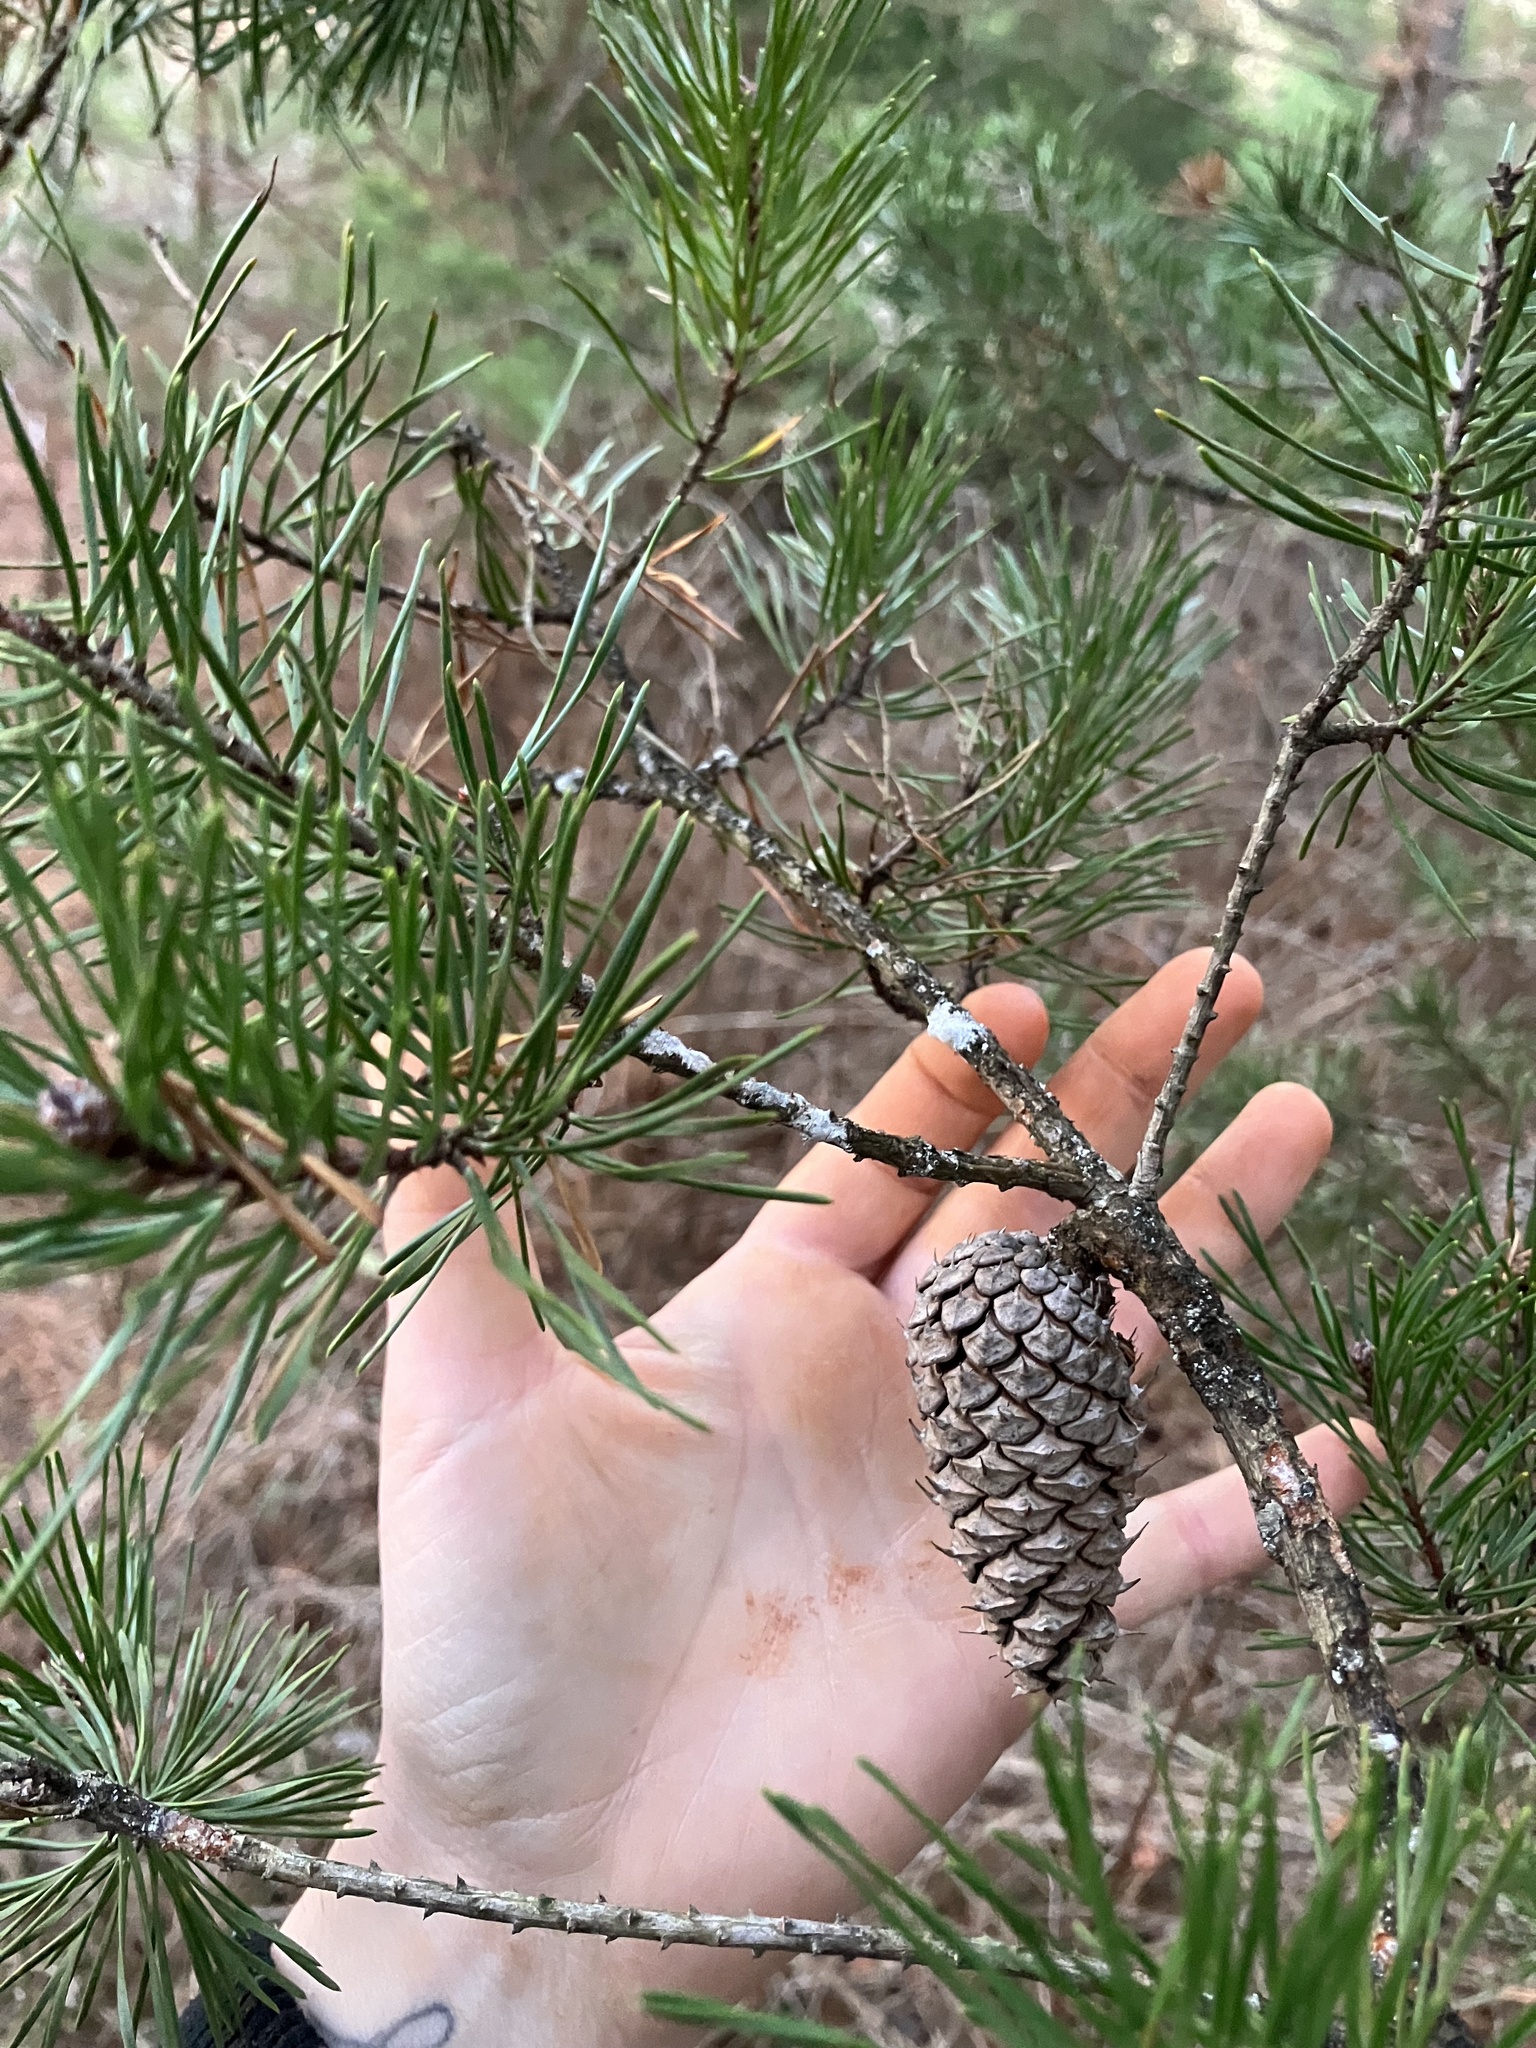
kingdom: Plantae
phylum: Tracheophyta
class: Pinopsida
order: Pinales
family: Pinaceae
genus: Pinus
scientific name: Pinus virginiana
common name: Scrub pine
